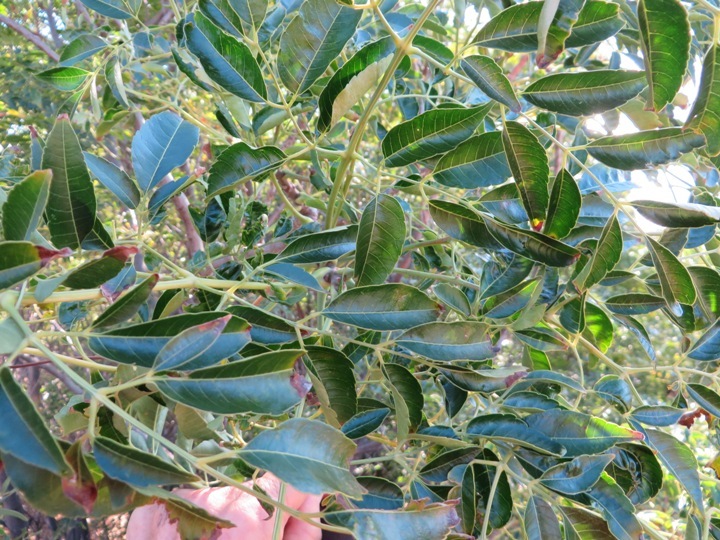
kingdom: Plantae
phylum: Tracheophyta
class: Magnoliopsida
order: Sapindales
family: Meliaceae
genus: Melia
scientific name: Melia azedarach
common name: Chinaberrytree
